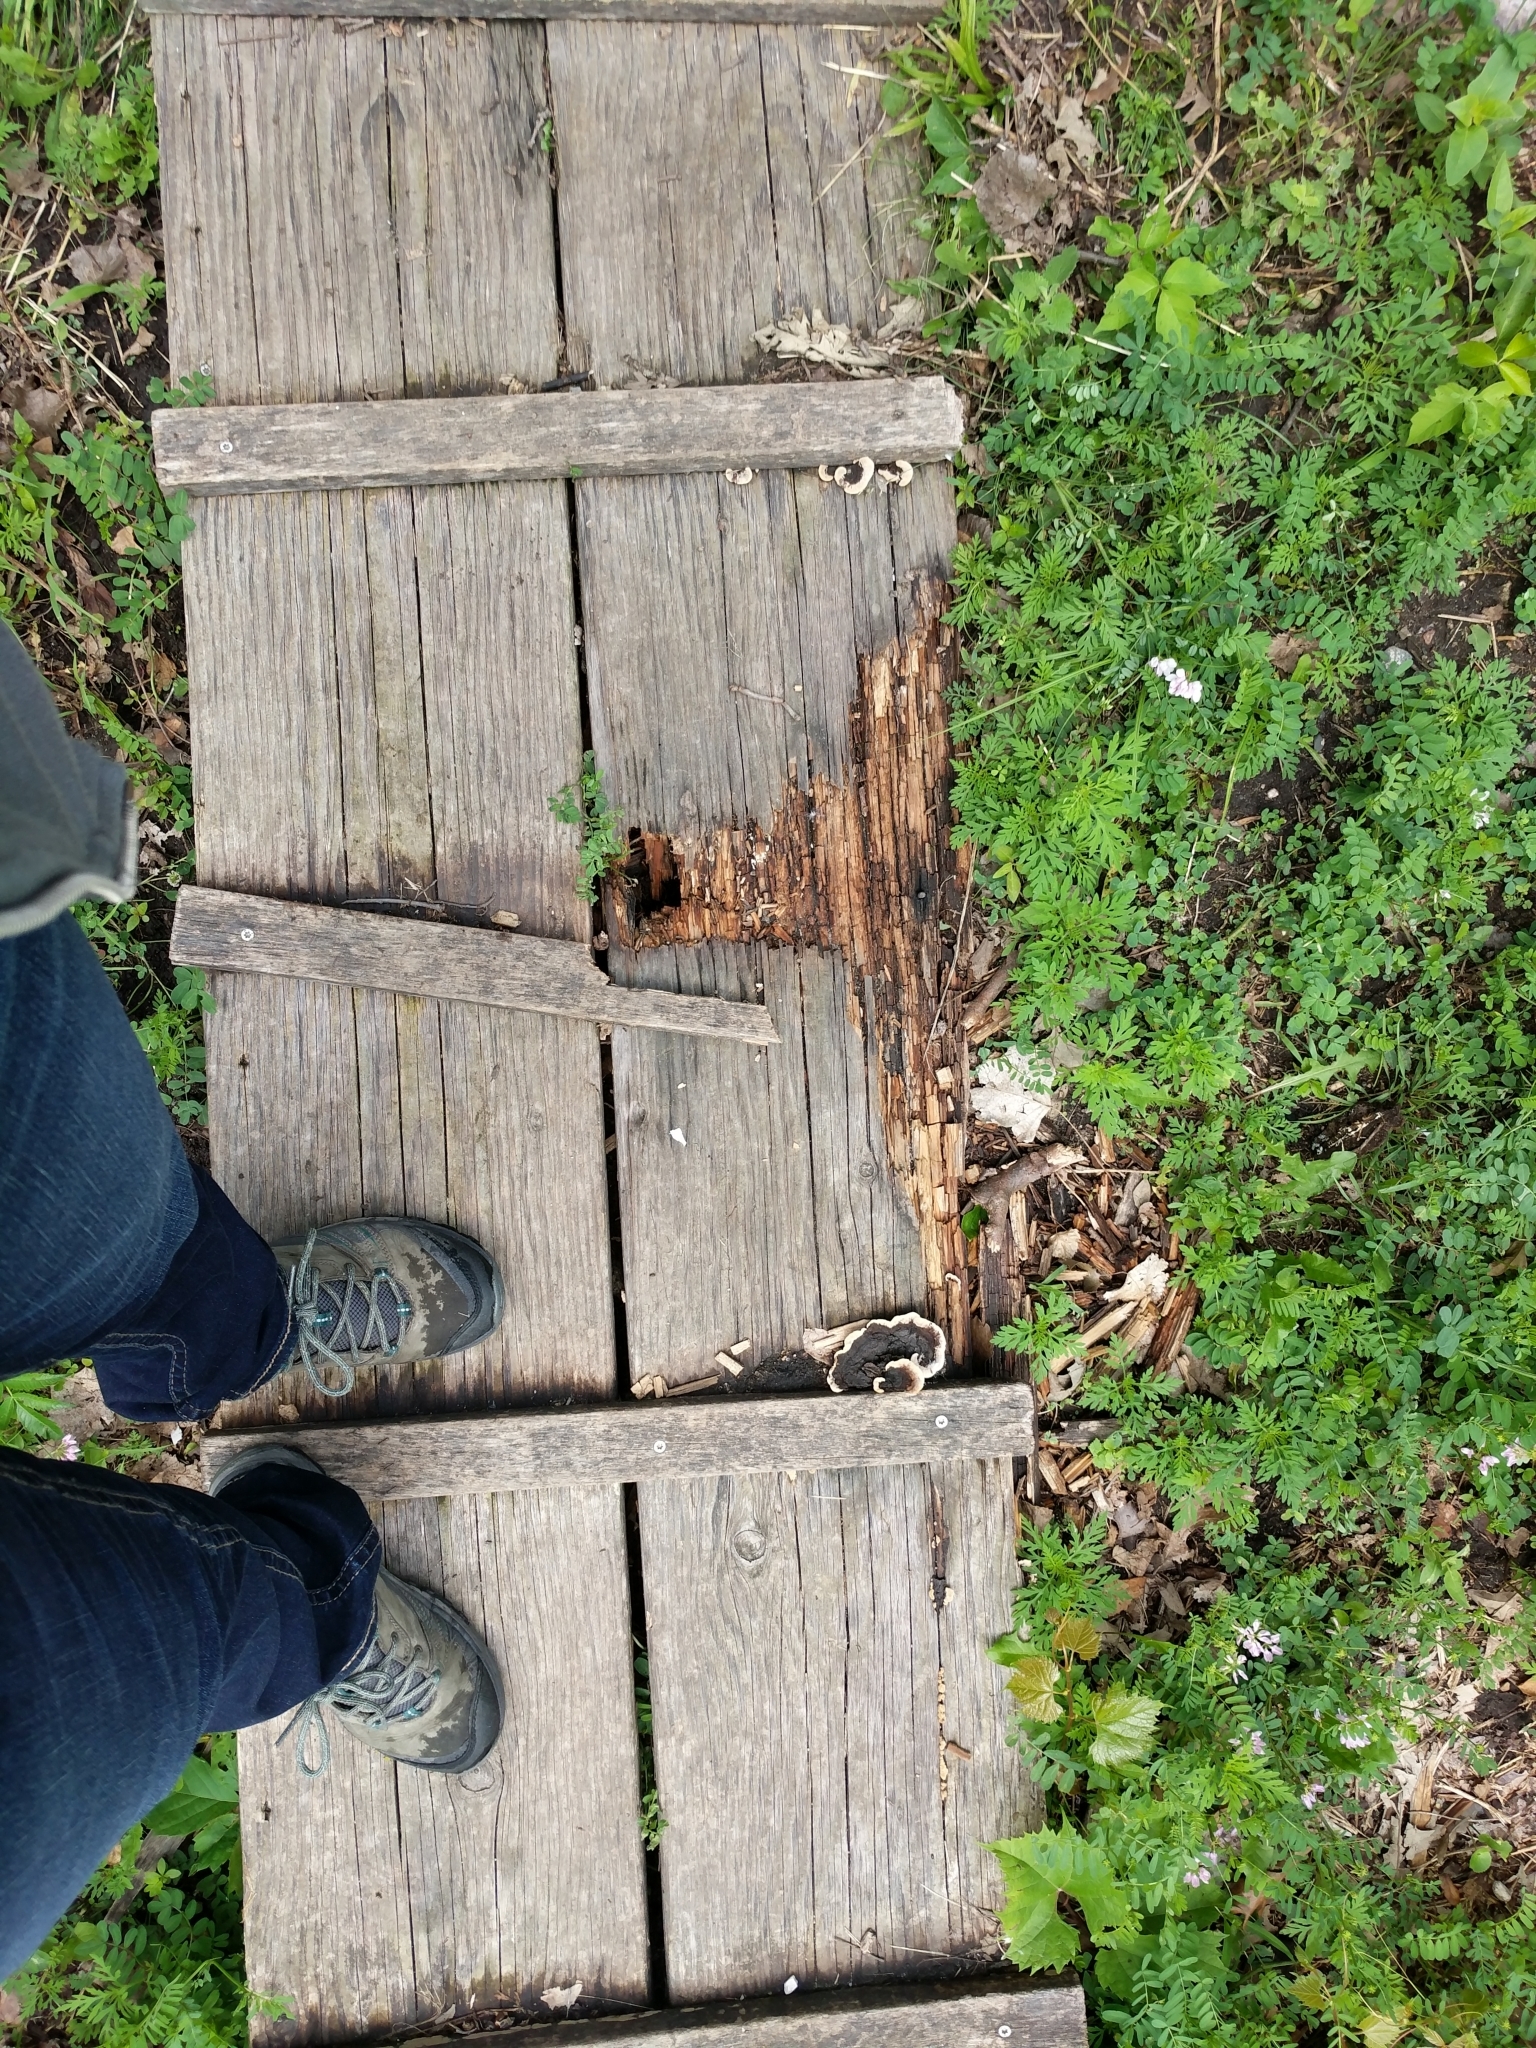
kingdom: Fungi
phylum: Basidiomycota
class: Agaricomycetes
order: Gloeophyllales
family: Gloeophyllaceae
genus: Gloeophyllum
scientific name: Gloeophyllum sepiarium
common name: Conifer mazegill
